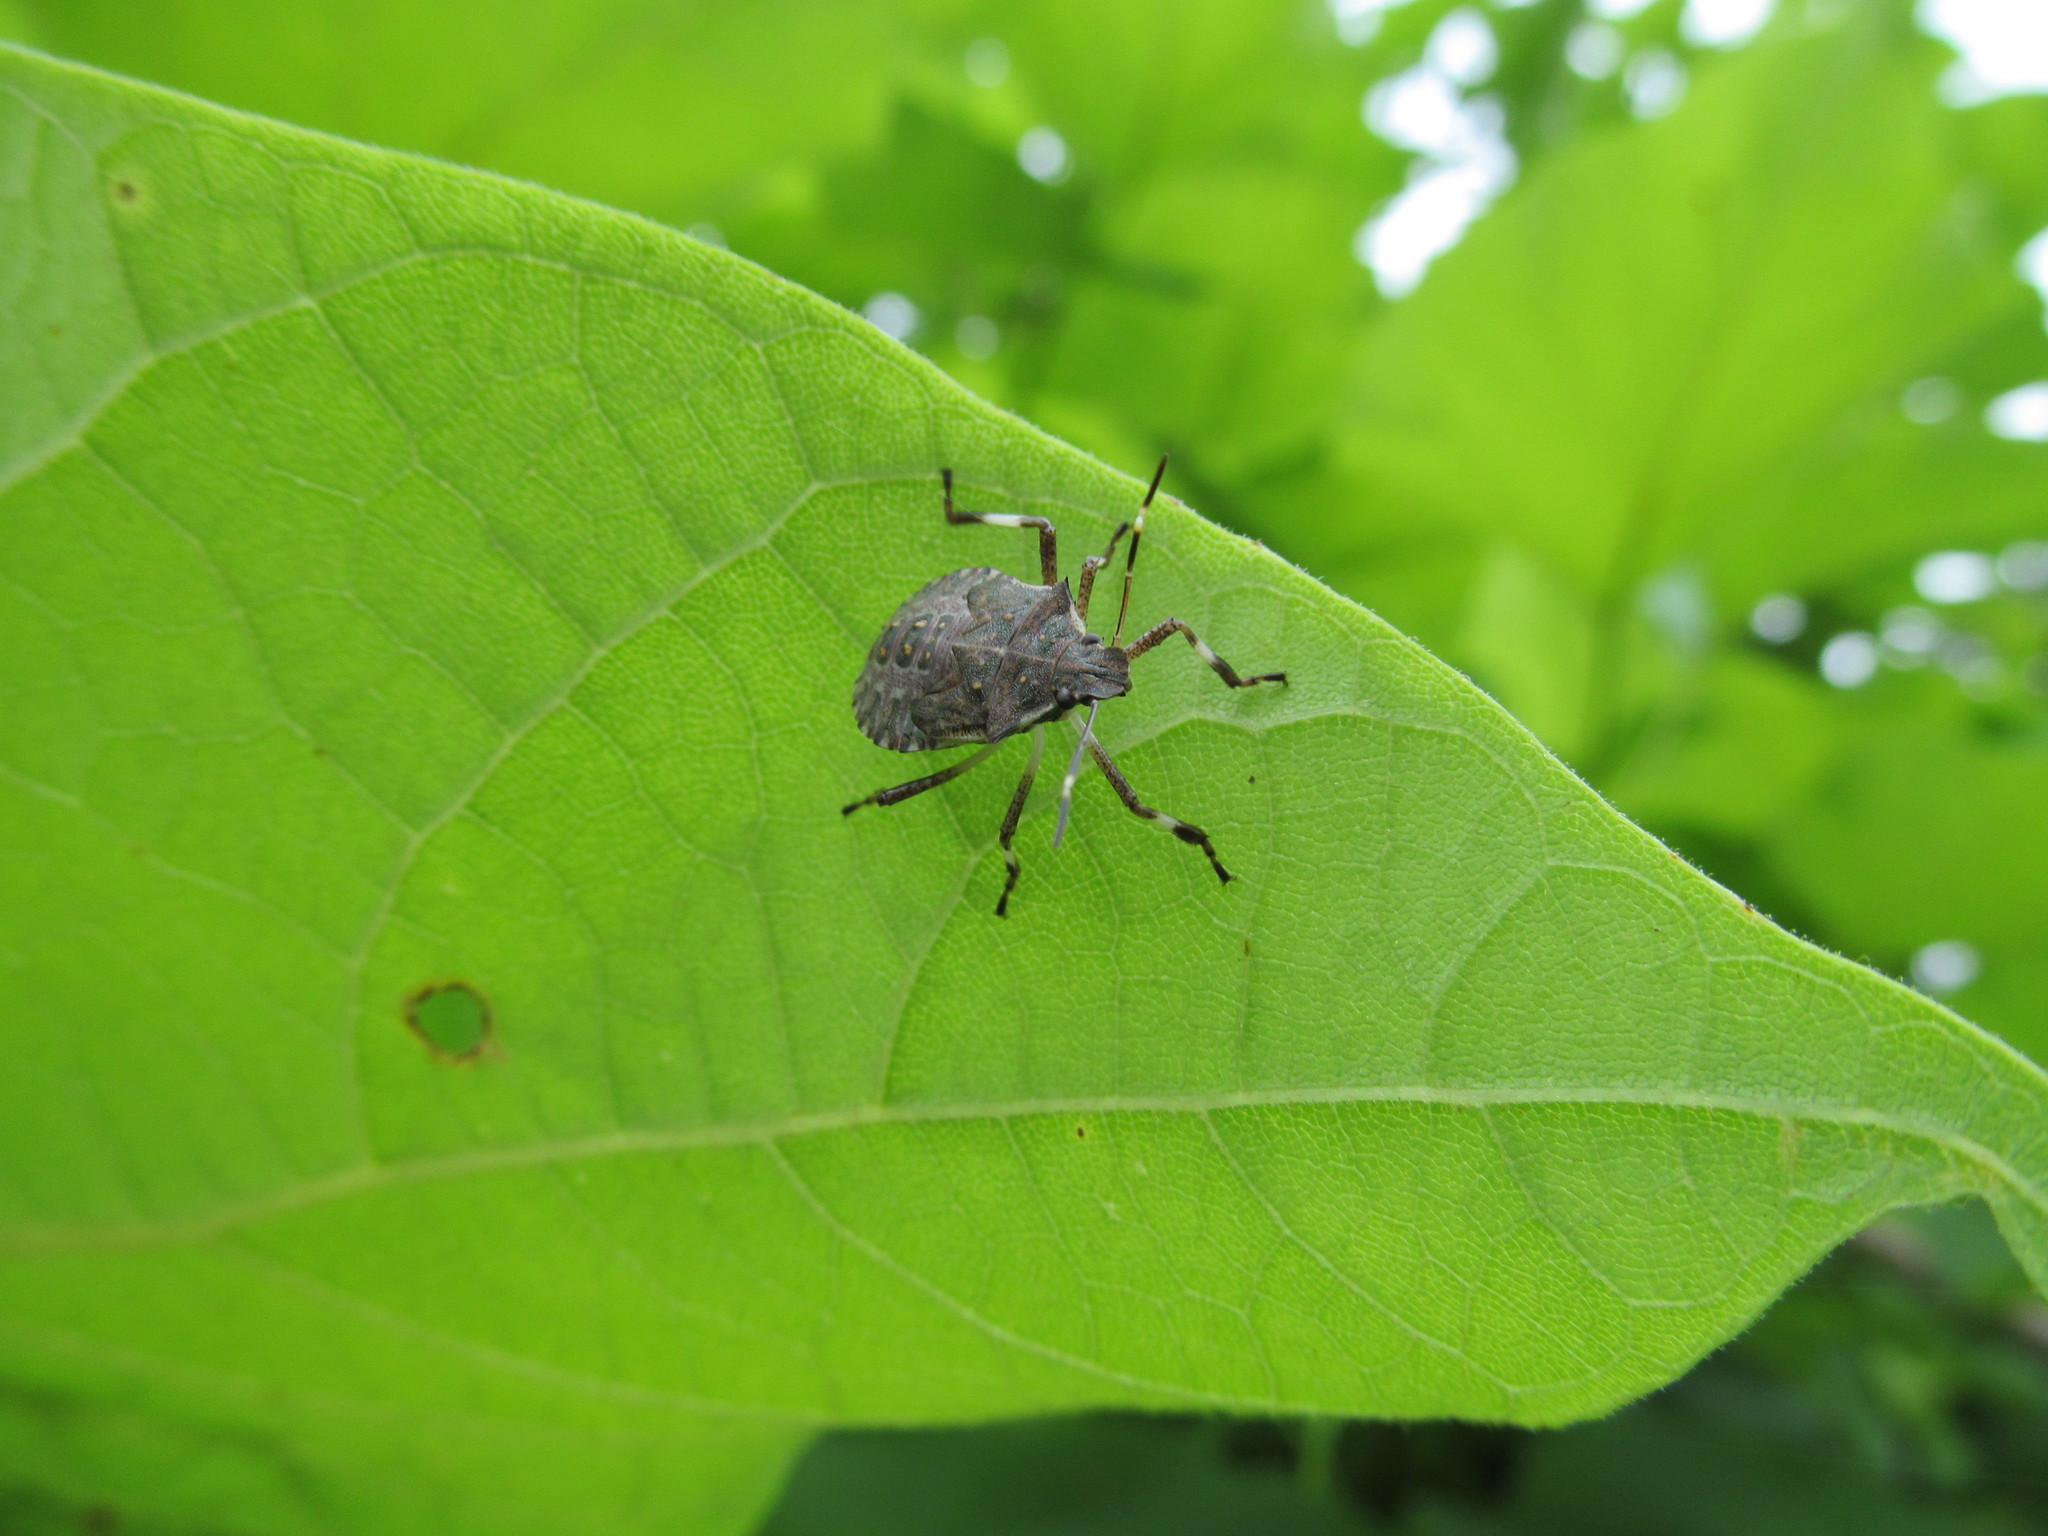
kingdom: Animalia
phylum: Arthropoda
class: Insecta
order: Hemiptera
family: Pentatomidae
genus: Halyomorpha
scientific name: Halyomorpha halys
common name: Brown marmorated stink bug
